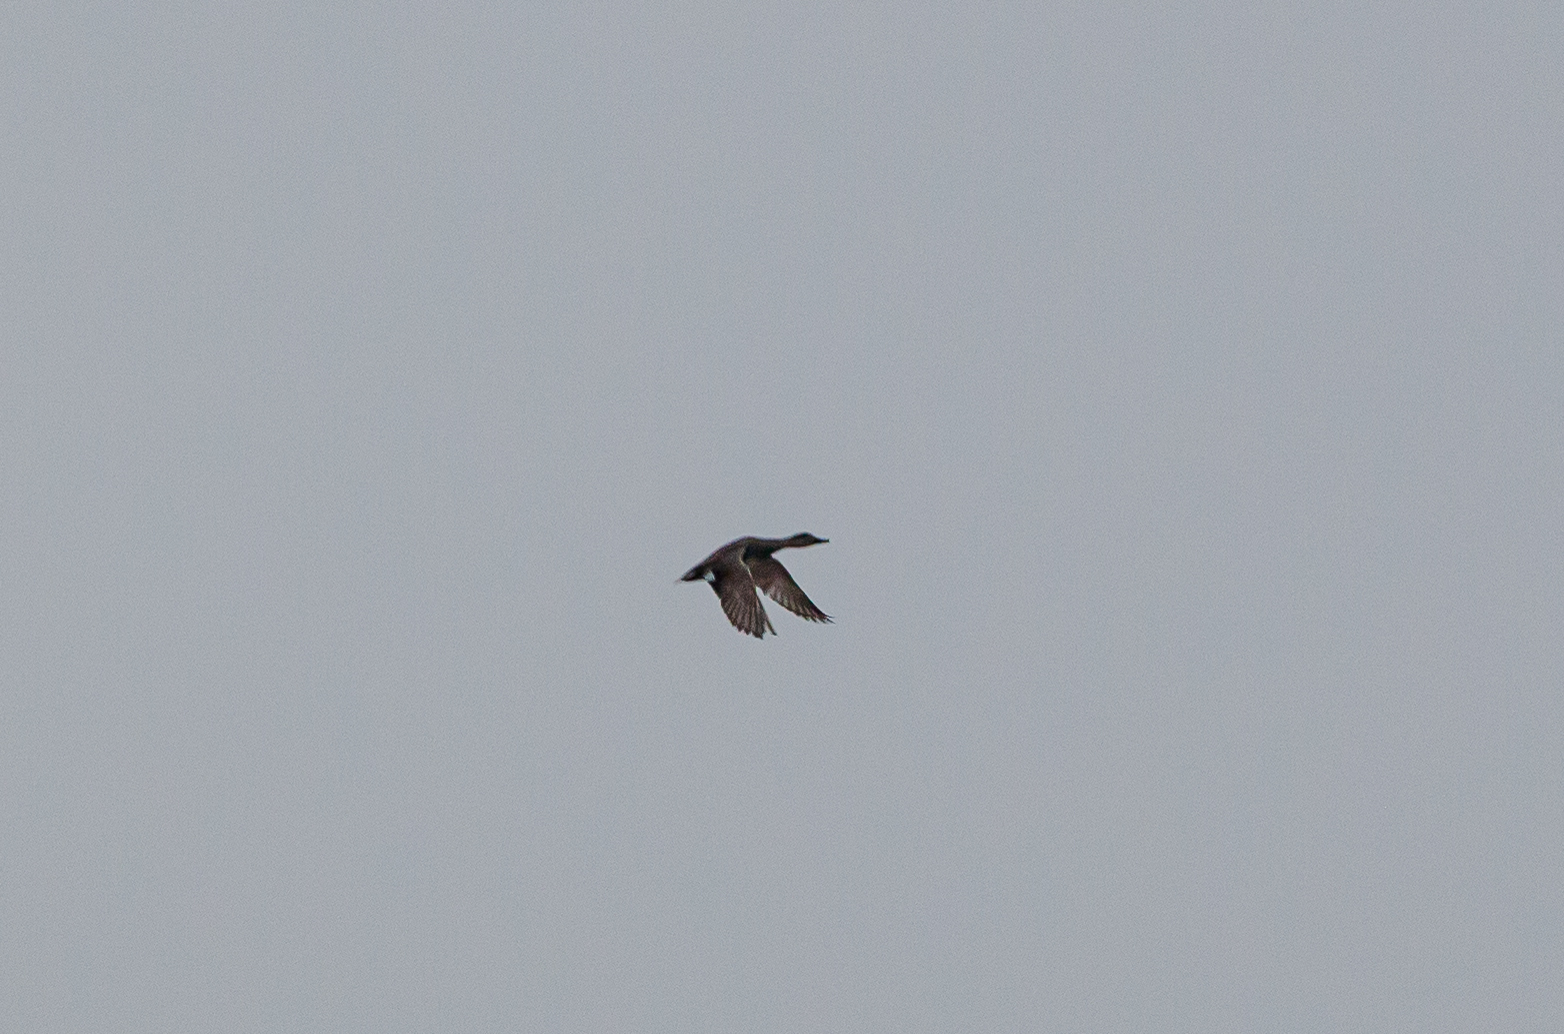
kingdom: Animalia
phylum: Chordata
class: Aves
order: Anseriformes
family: Anatidae
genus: Mareca
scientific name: Mareca strepera
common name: Gadwall
